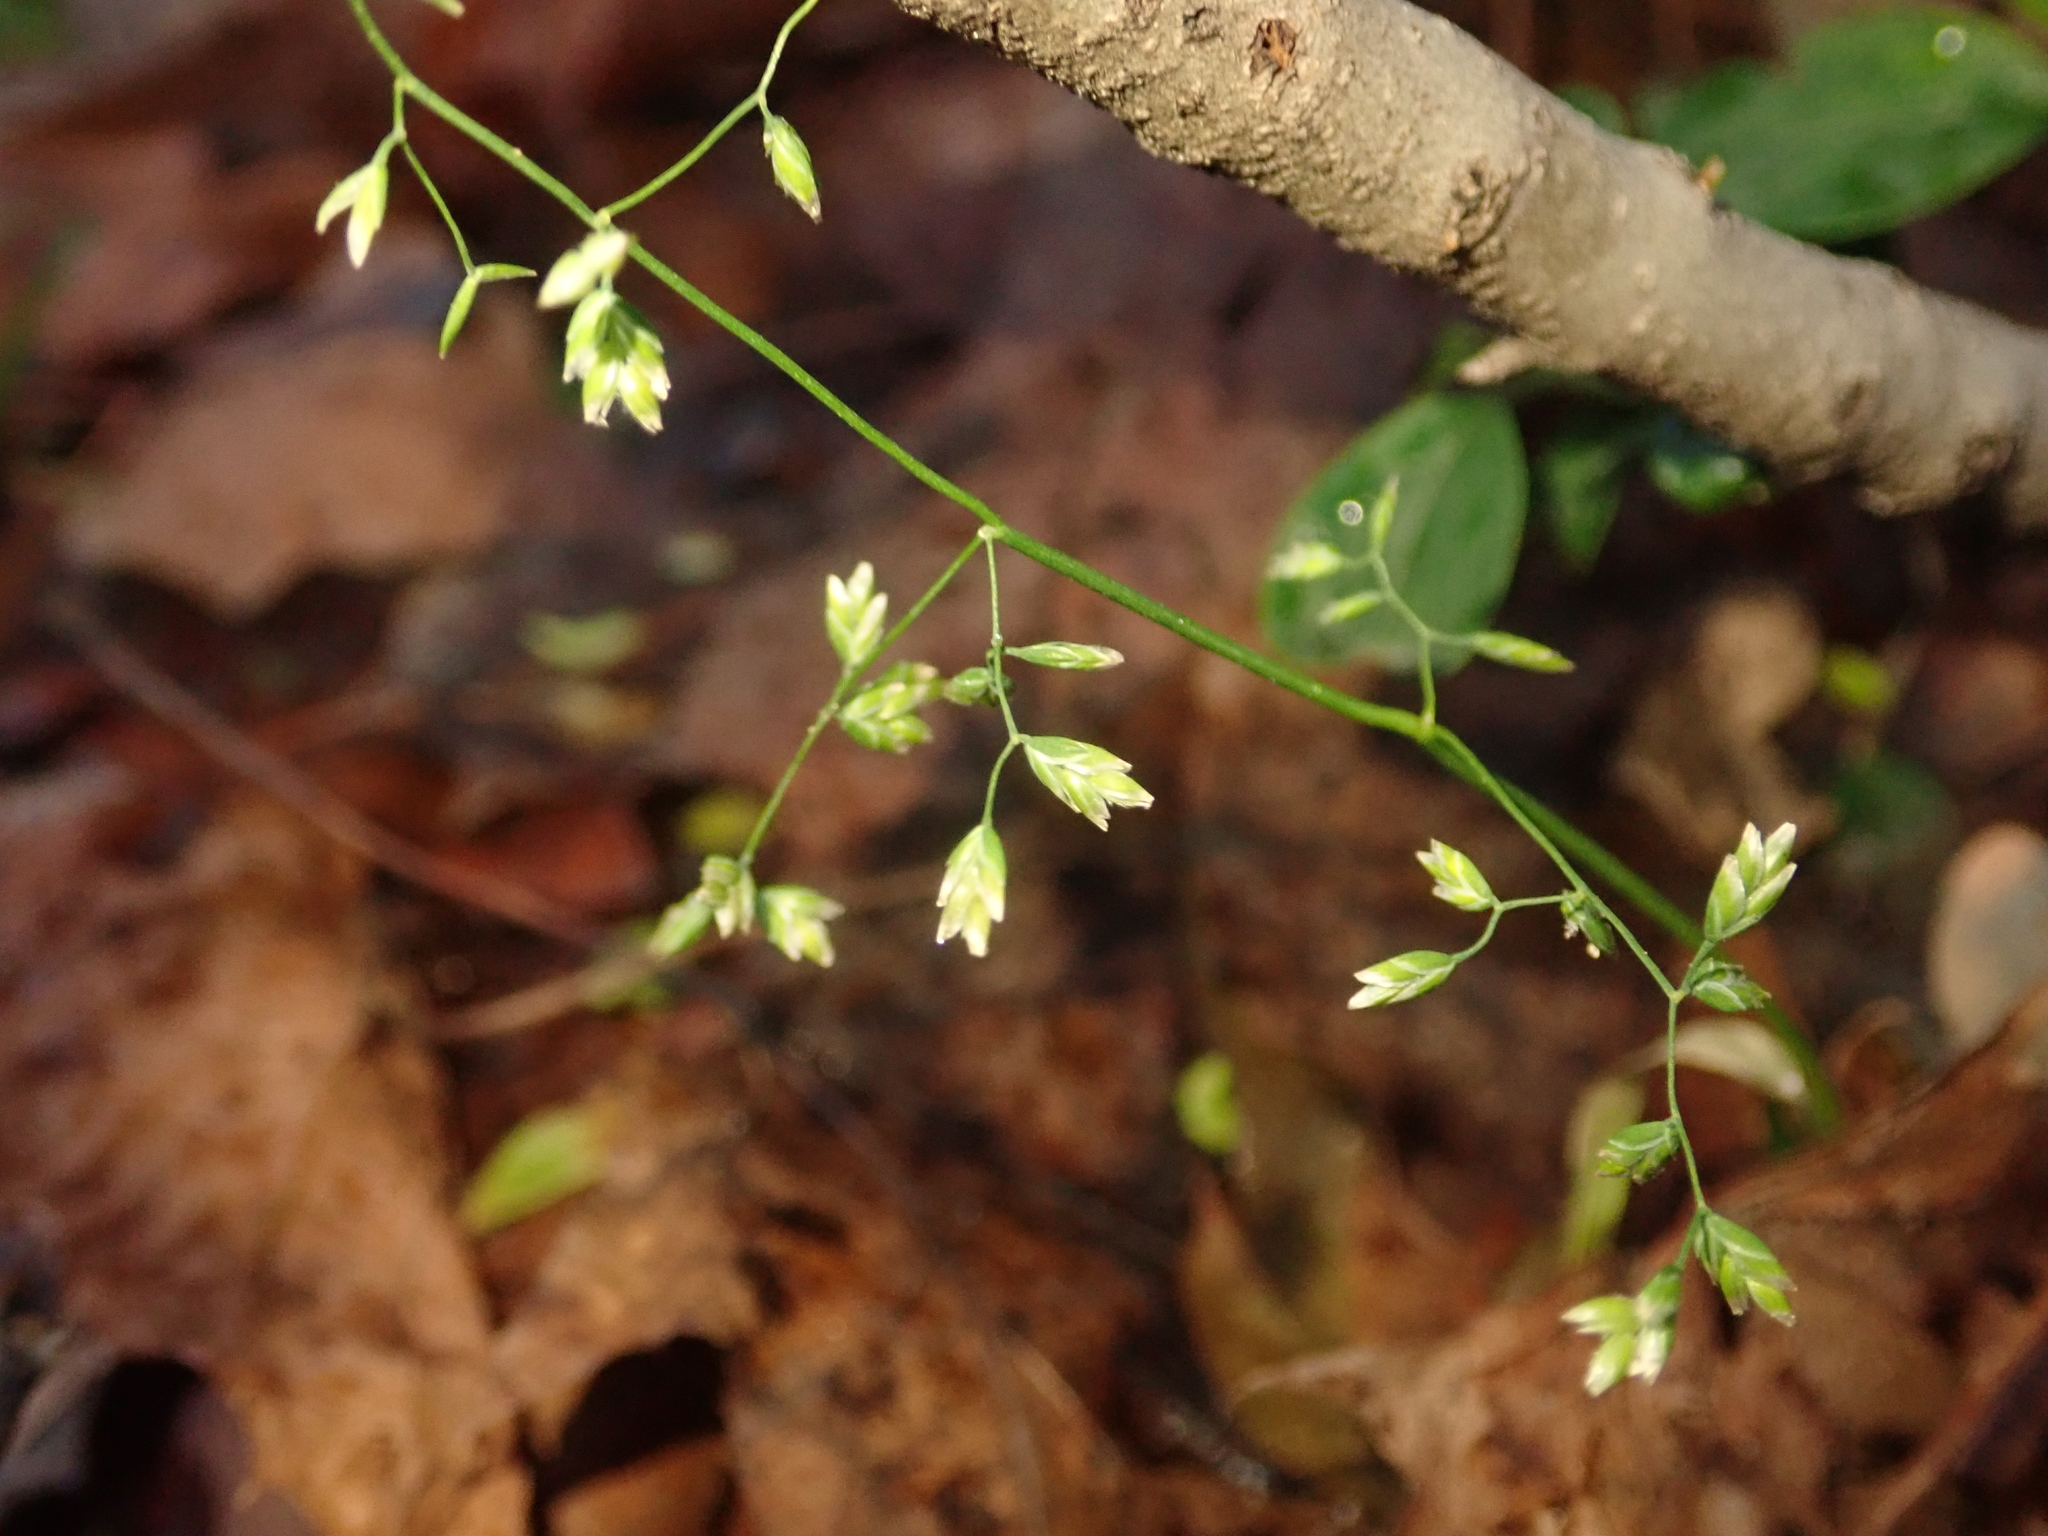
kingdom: Plantae
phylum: Tracheophyta
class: Liliopsida
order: Poales
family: Poaceae
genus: Poa
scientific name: Poa annua
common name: Annual bluegrass
